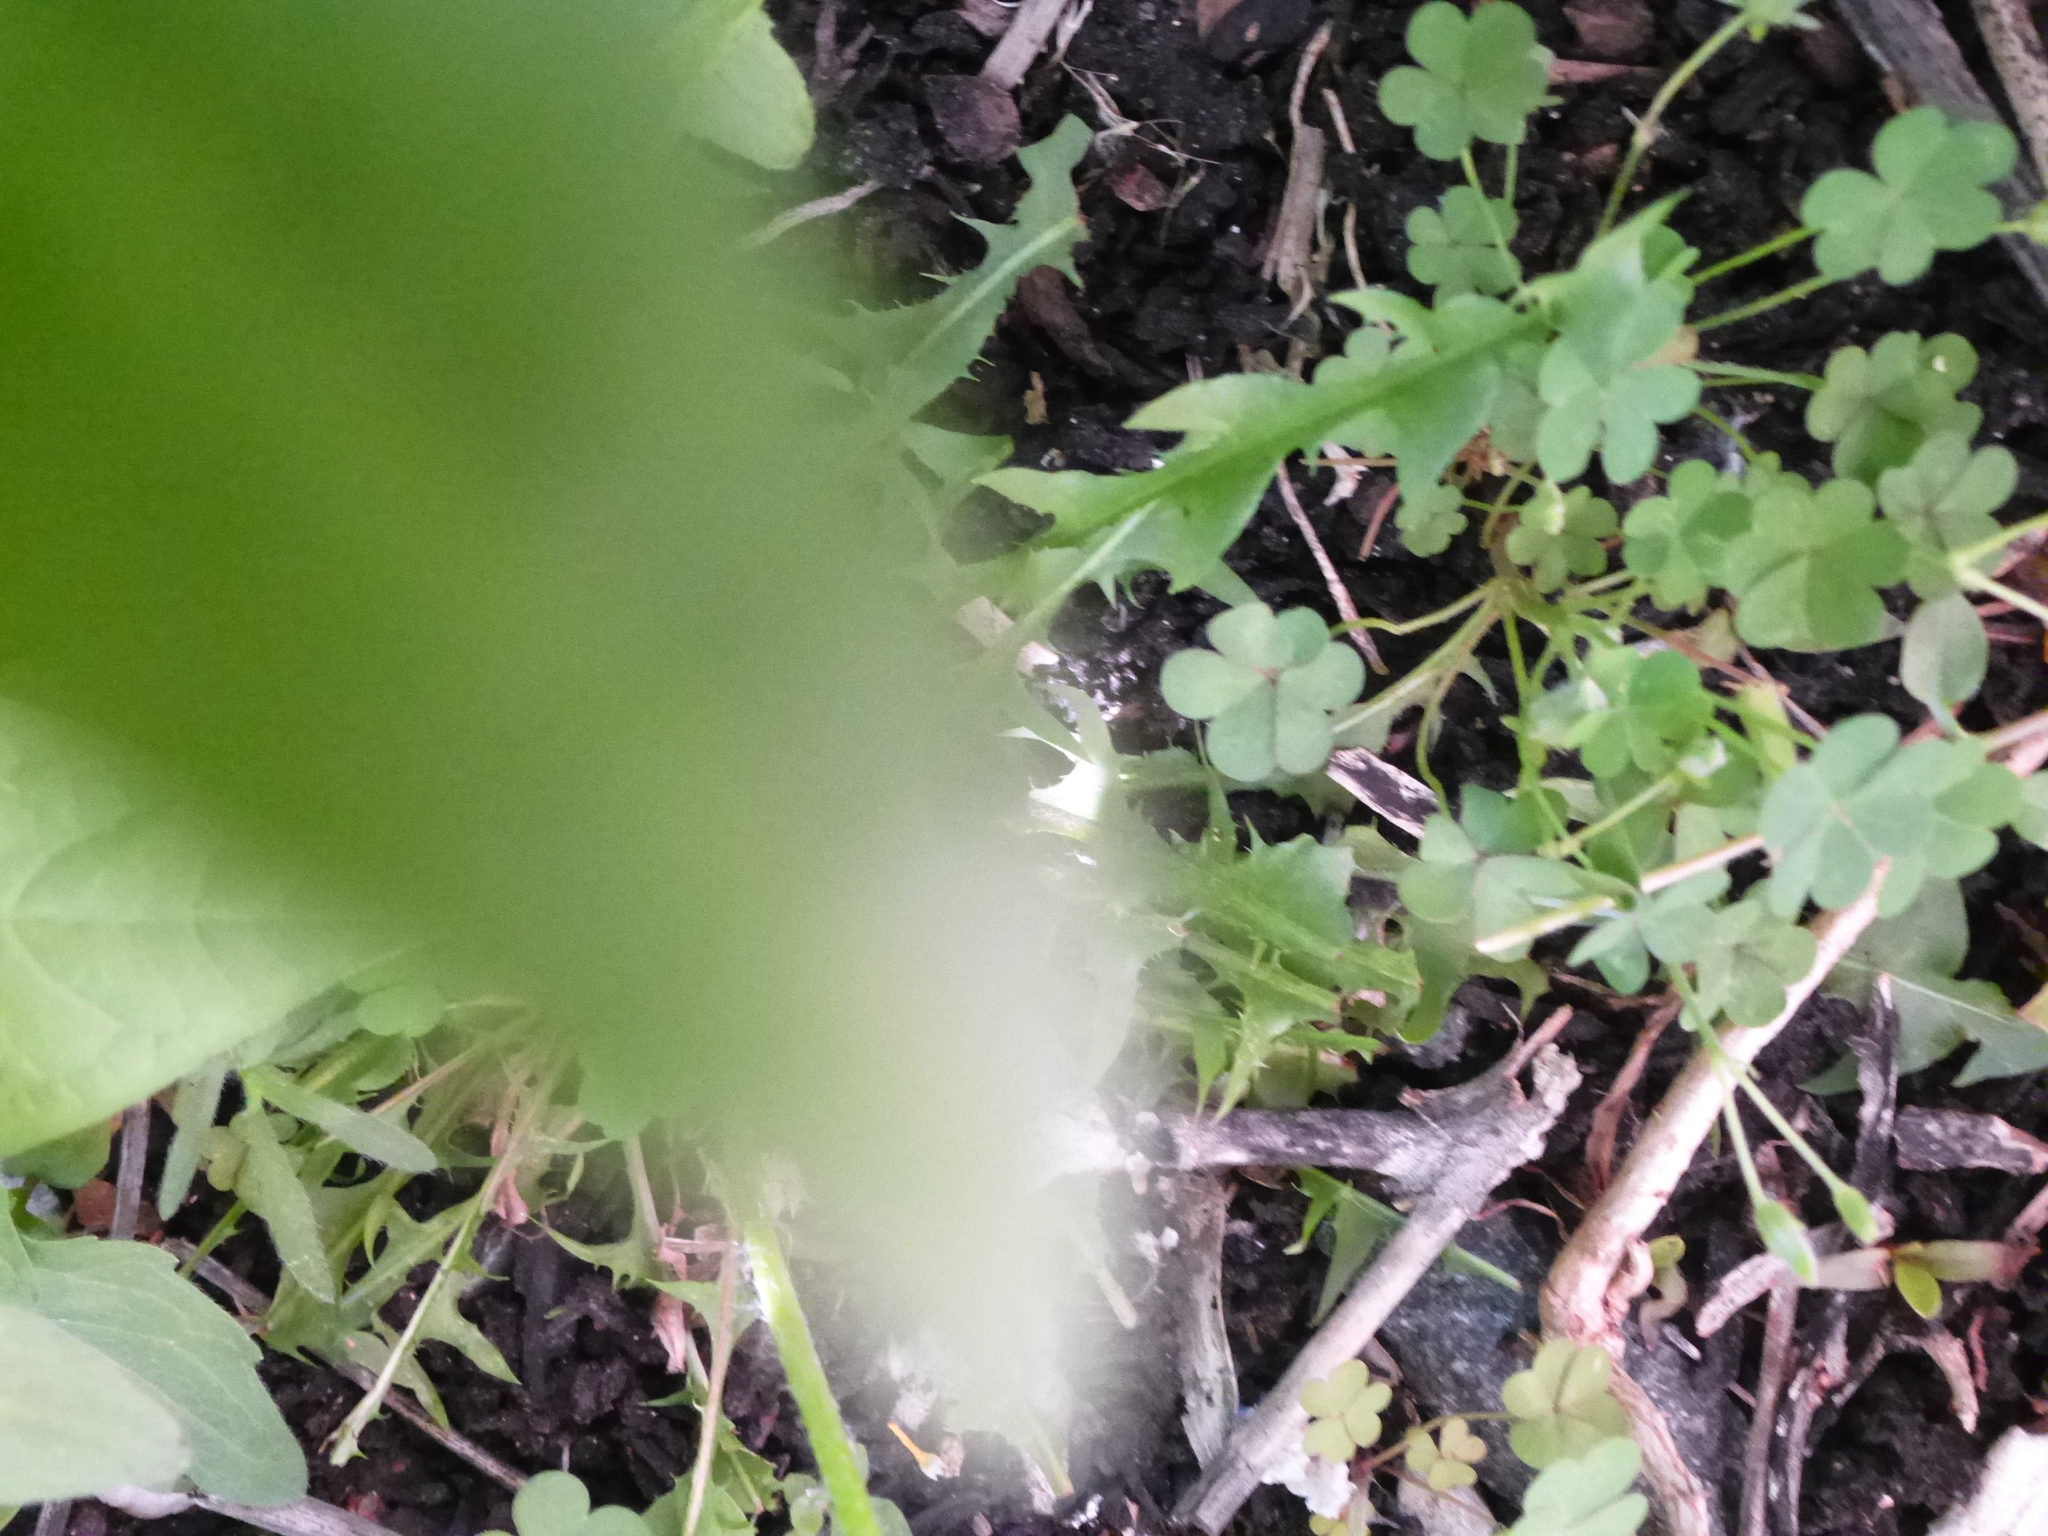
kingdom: Plantae
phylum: Tracheophyta
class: Magnoliopsida
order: Asterales
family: Asteraceae
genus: Taraxacum
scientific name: Taraxacum officinale
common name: Common dandelion
